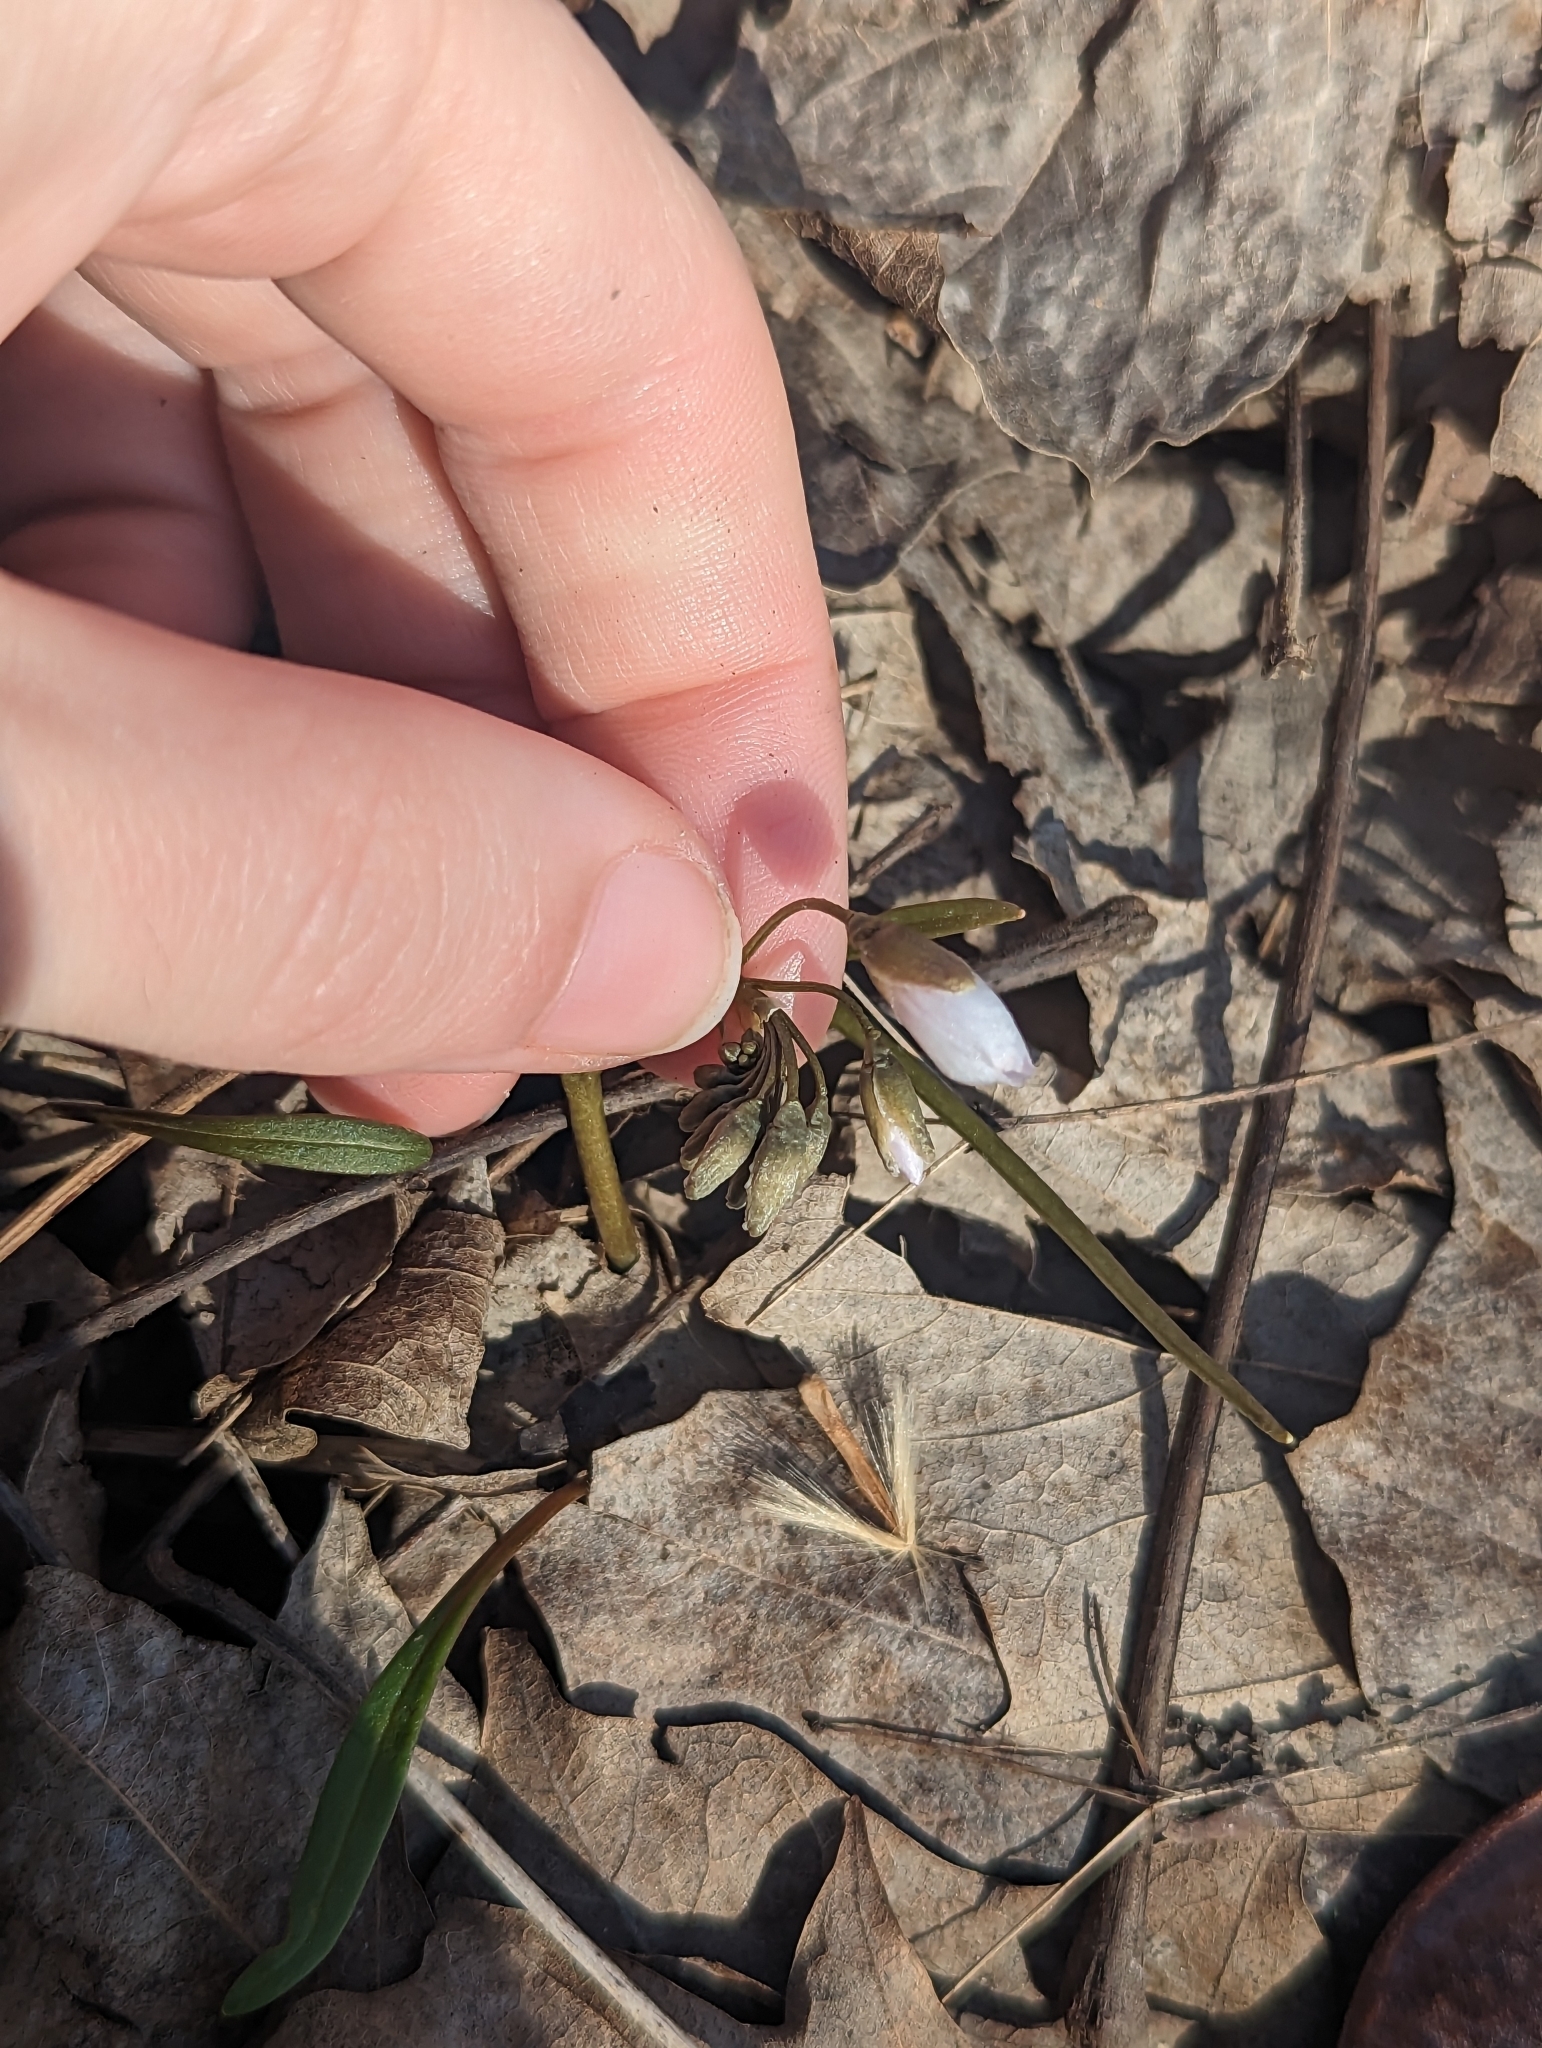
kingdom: Plantae
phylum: Tracheophyta
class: Magnoliopsida
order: Caryophyllales
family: Montiaceae
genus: Claytonia
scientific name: Claytonia virginica
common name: Virginia springbeauty
